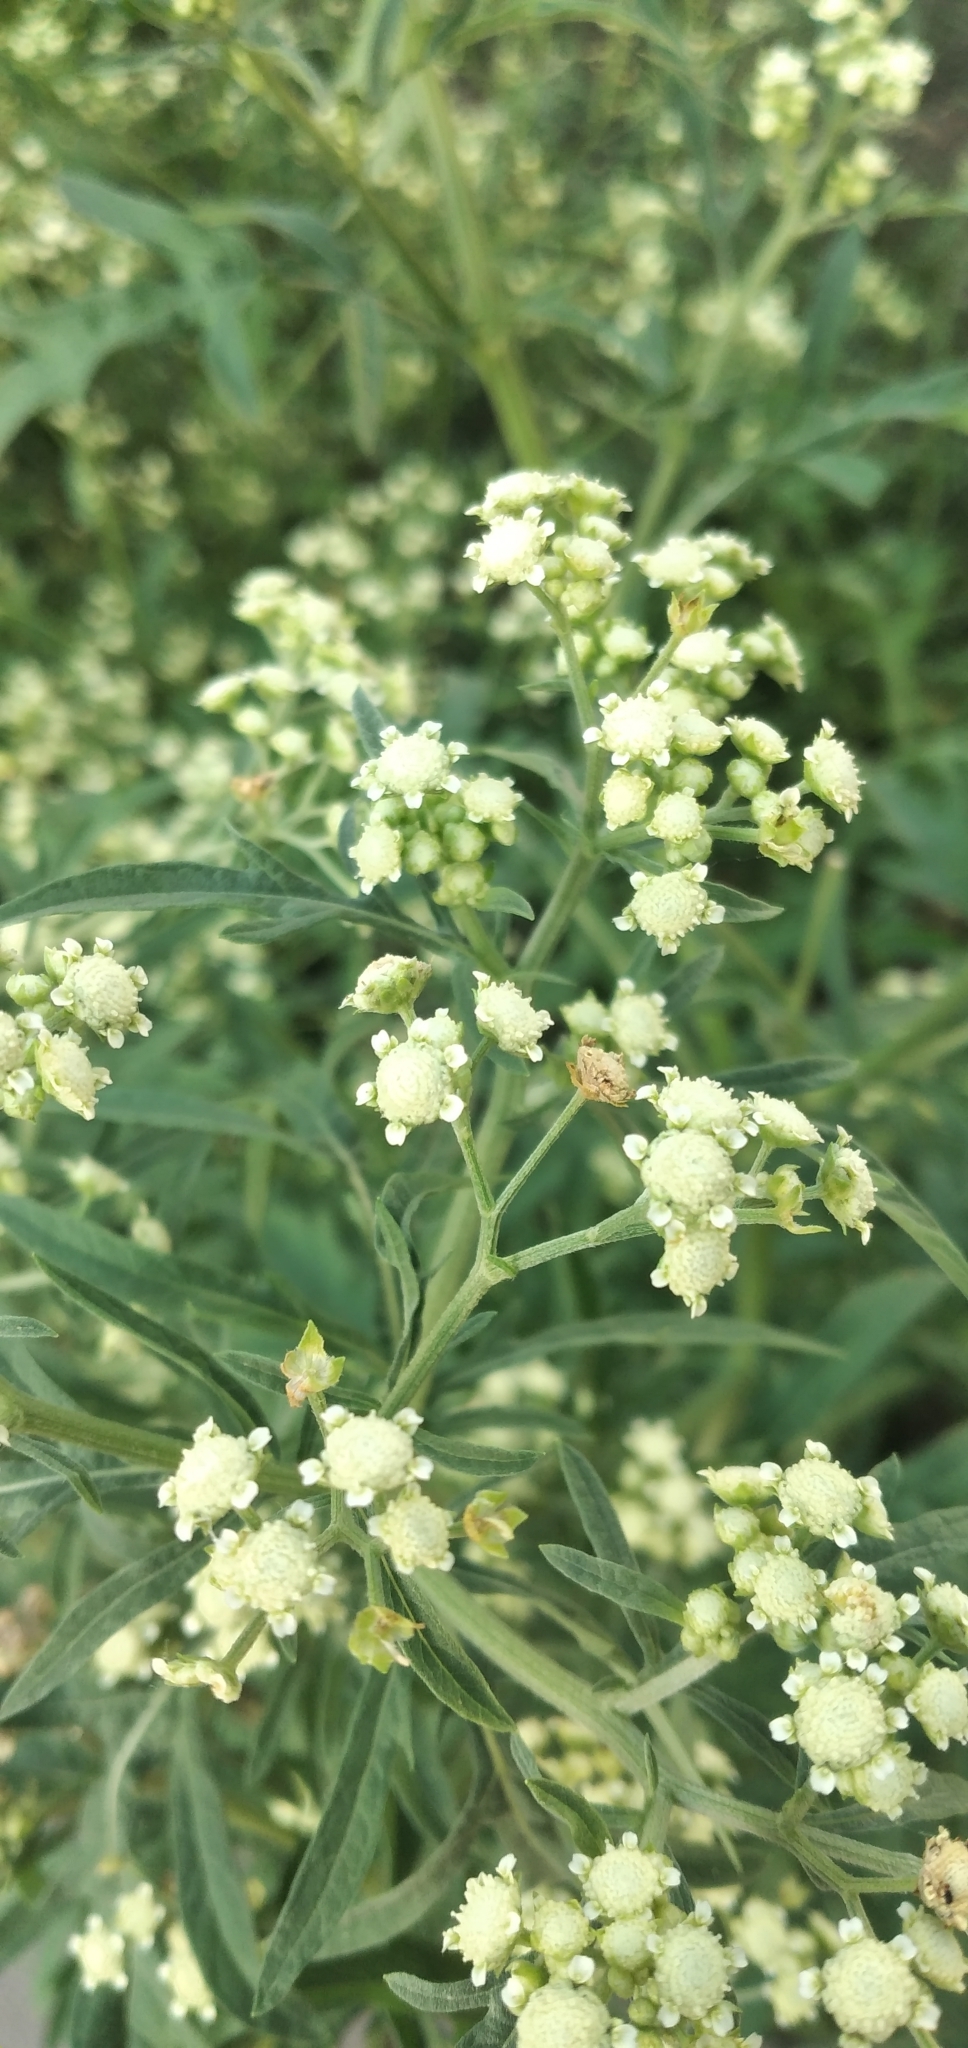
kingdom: Plantae
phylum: Tracheophyta
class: Magnoliopsida
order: Asterales
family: Asteraceae
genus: Parthenium
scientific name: Parthenium hysterophorus
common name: Santa maria feverfew
